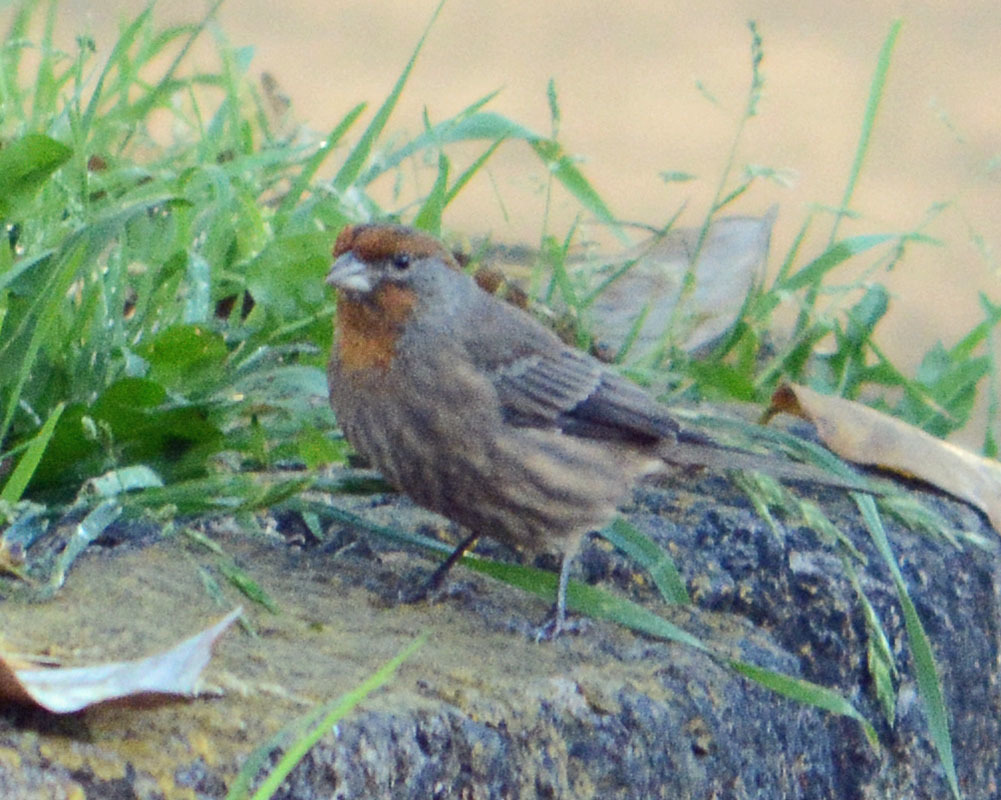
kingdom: Animalia
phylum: Chordata
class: Aves
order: Passeriformes
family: Fringillidae
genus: Haemorhous
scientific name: Haemorhous mexicanus
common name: House finch
